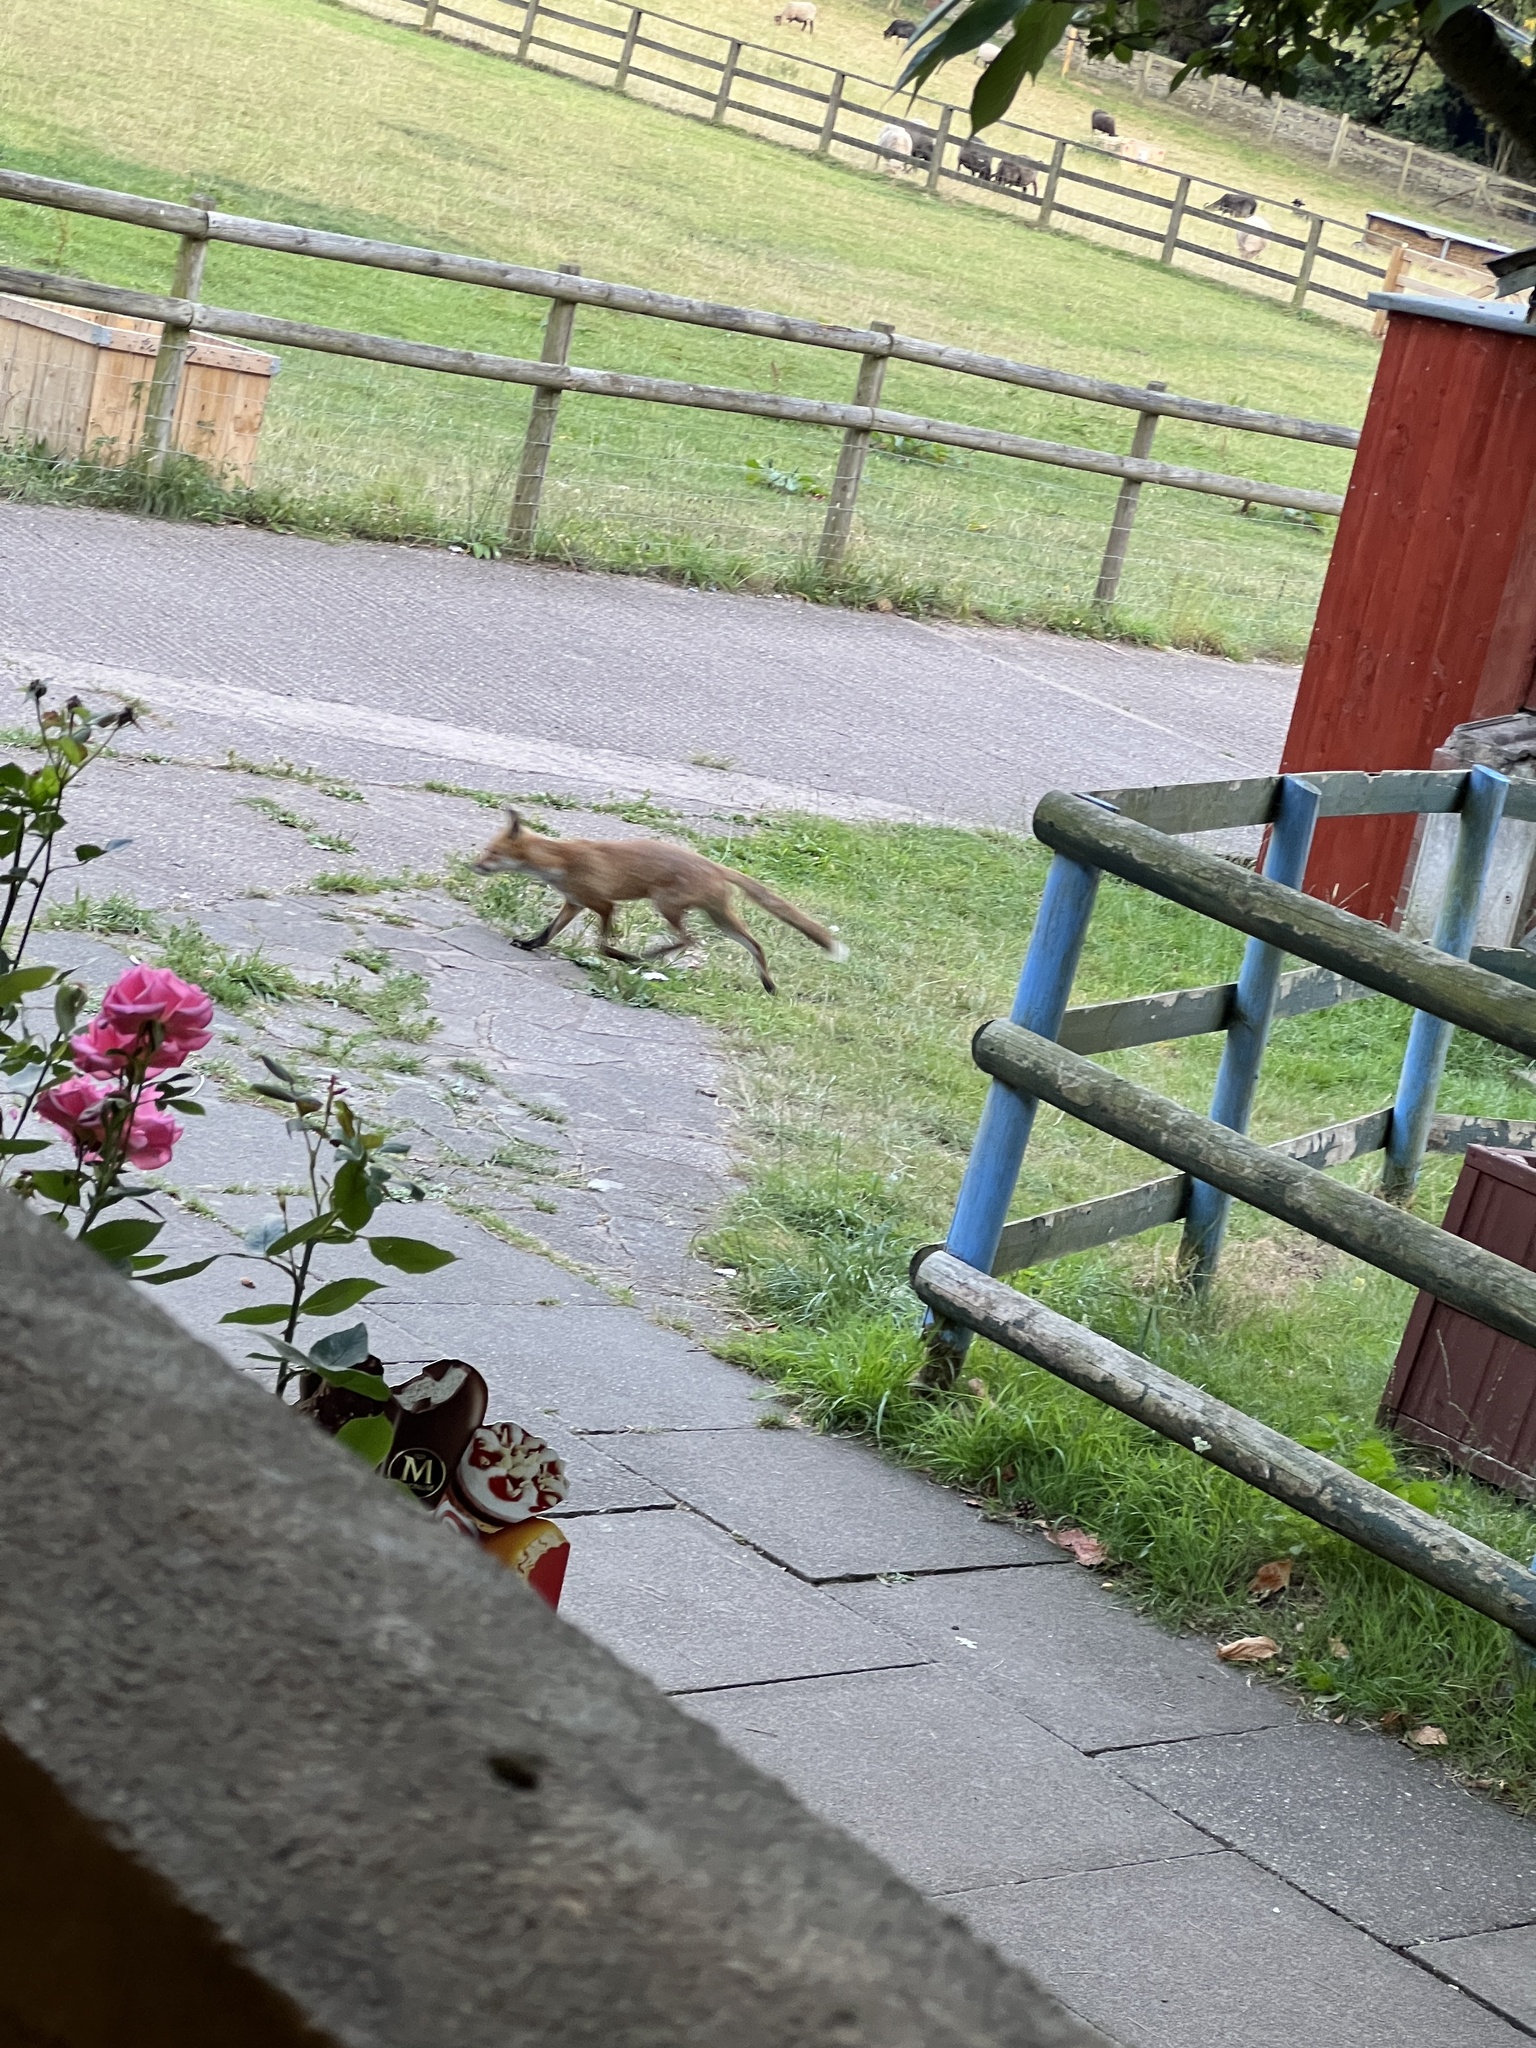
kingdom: Animalia
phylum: Chordata
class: Mammalia
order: Carnivora
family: Canidae
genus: Vulpes
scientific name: Vulpes vulpes
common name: Red fox
